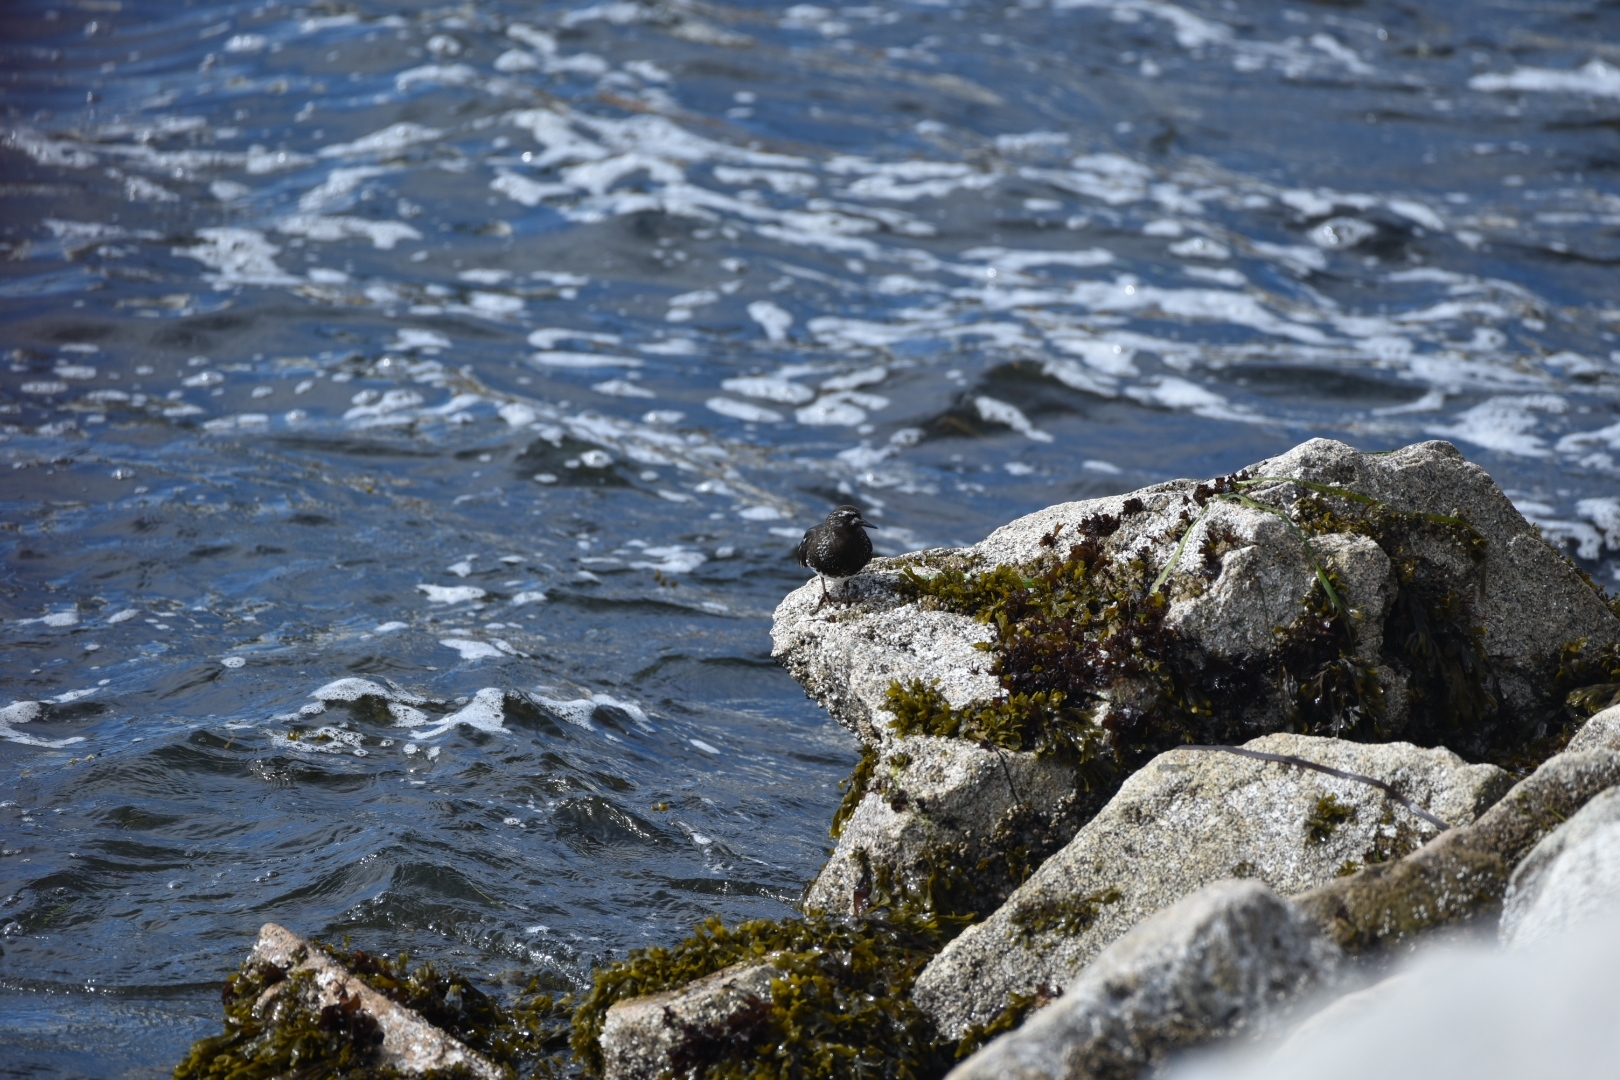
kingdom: Animalia
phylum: Chordata
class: Aves
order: Charadriiformes
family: Scolopacidae
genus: Arenaria
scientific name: Arenaria melanocephala
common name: Black turnstone
